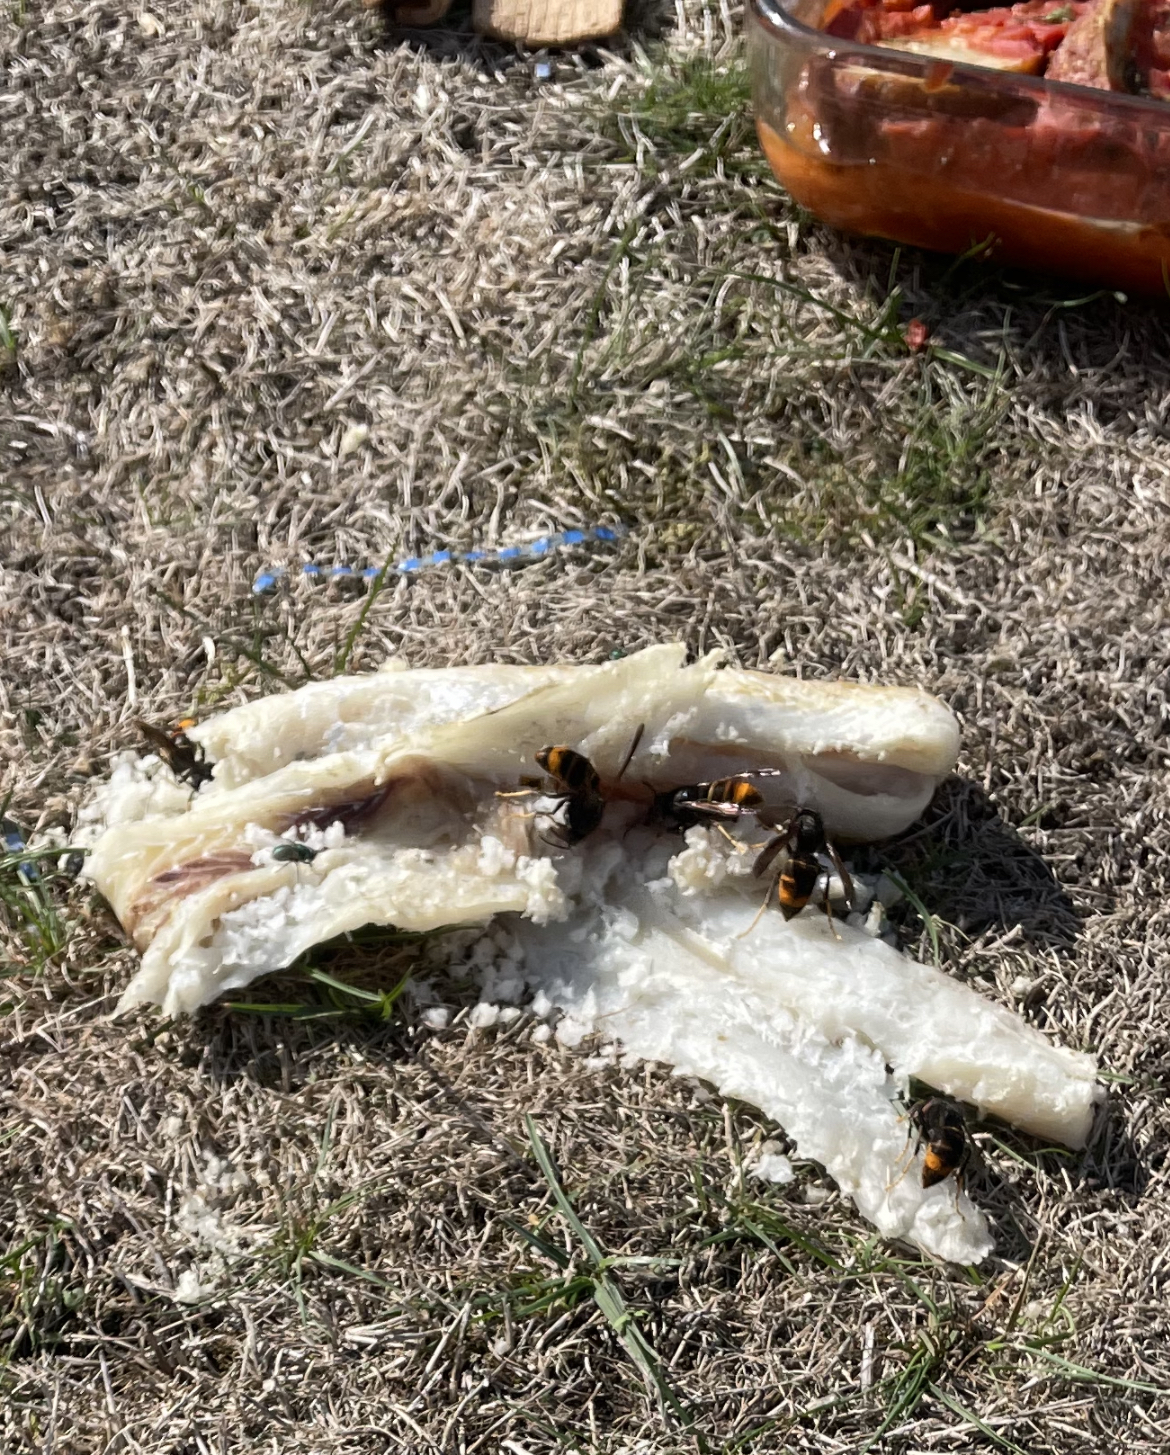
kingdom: Animalia
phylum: Arthropoda
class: Insecta
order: Hymenoptera
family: Vespidae
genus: Vespa
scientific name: Vespa velutina
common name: Asian hornet
